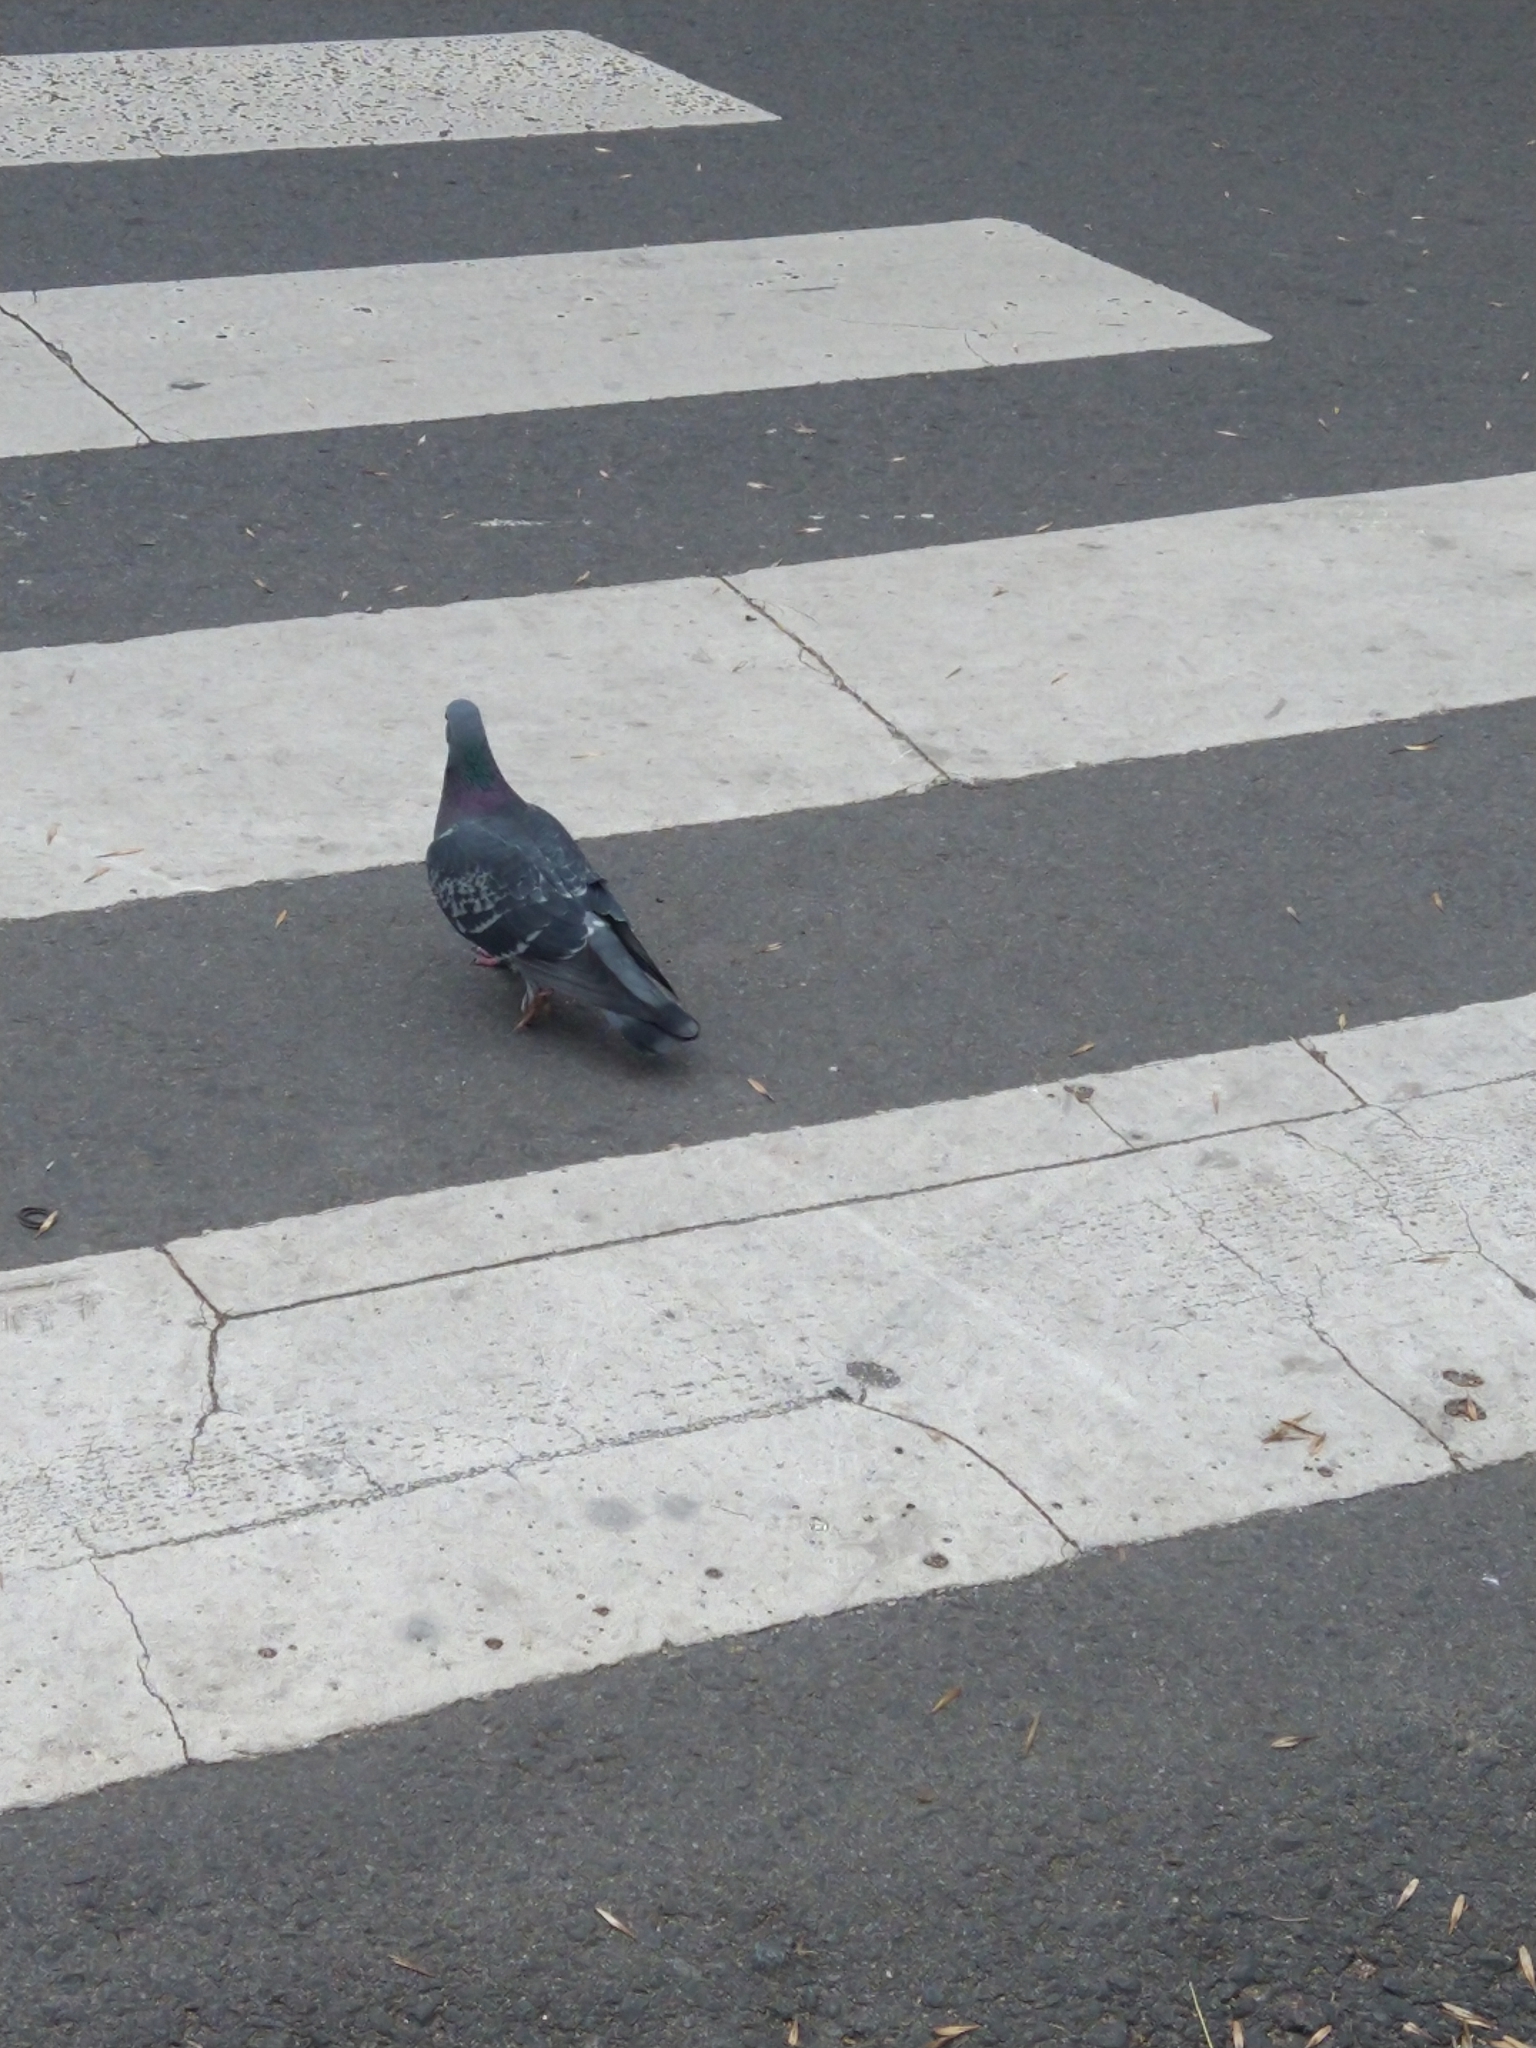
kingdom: Animalia
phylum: Chordata
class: Aves
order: Columbiformes
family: Columbidae
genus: Columba
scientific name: Columba livia
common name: Rock pigeon
